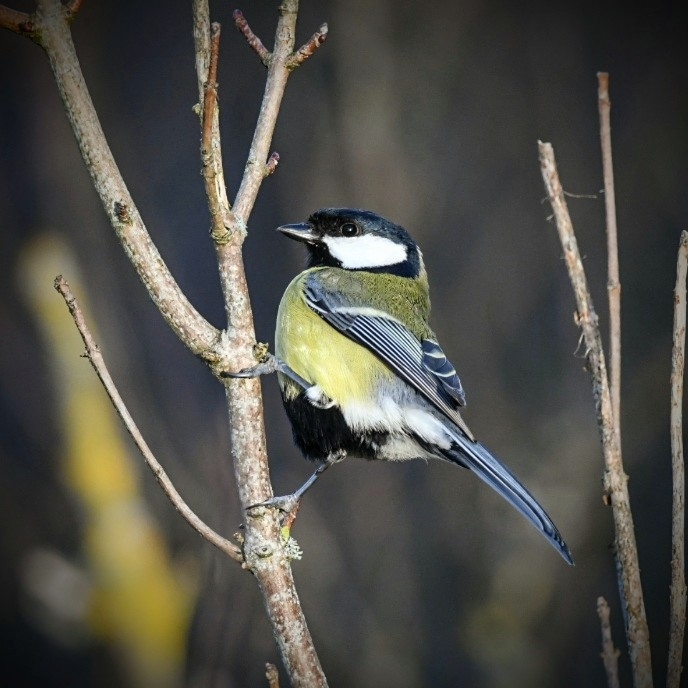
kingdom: Animalia
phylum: Chordata
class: Aves
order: Passeriformes
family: Paridae
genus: Parus
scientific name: Parus major
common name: Great tit
